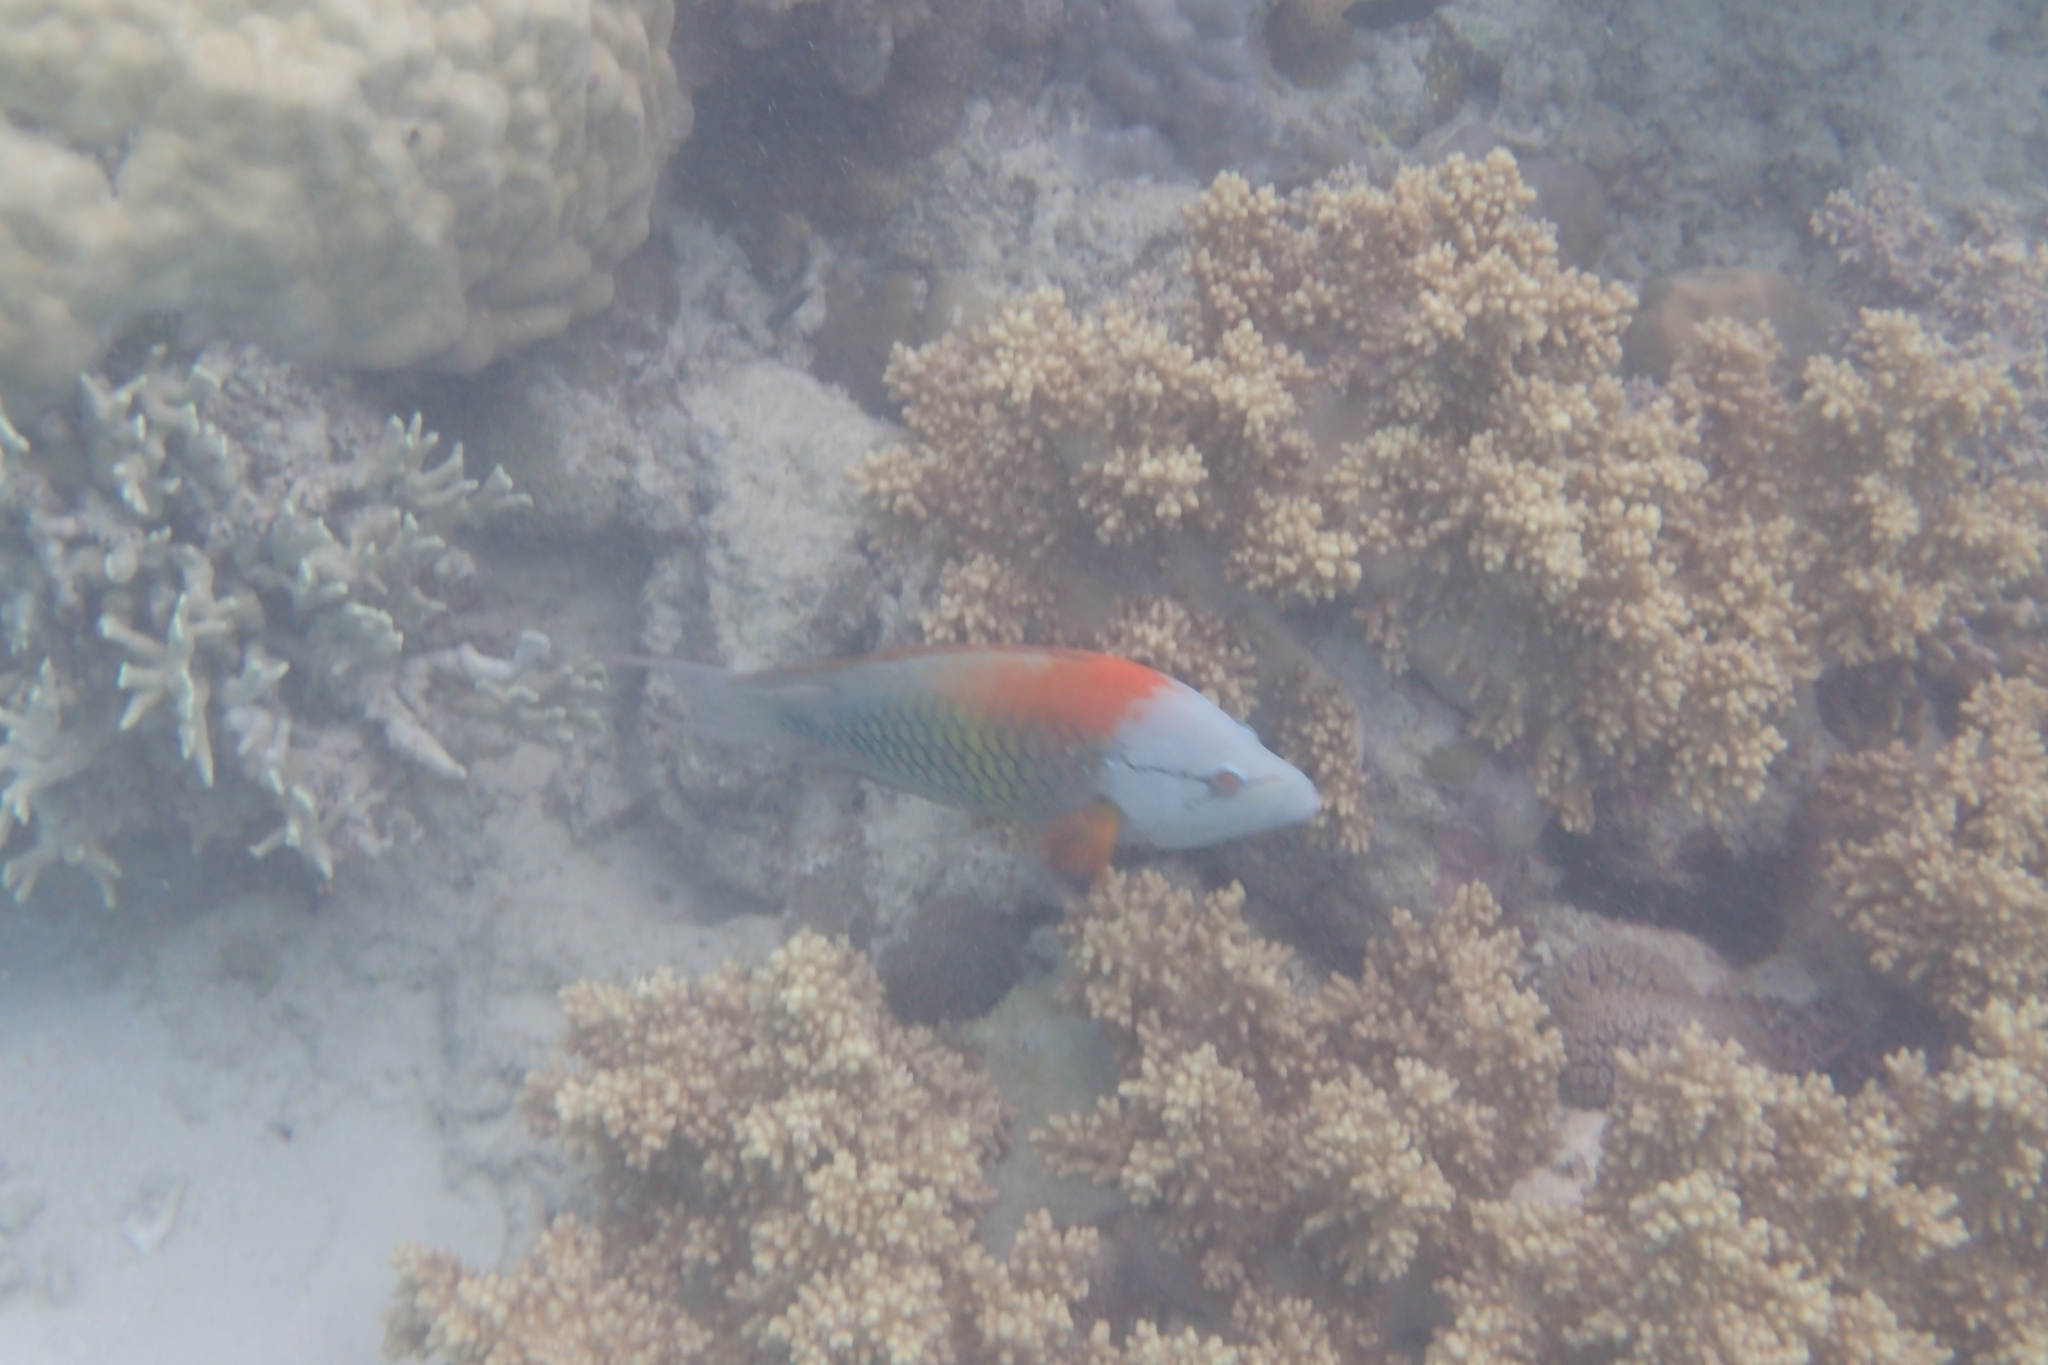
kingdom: Animalia
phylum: Chordata
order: Perciformes
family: Labridae
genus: Epibulus
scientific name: Epibulus insidiator
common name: Slingjaw wrasse
